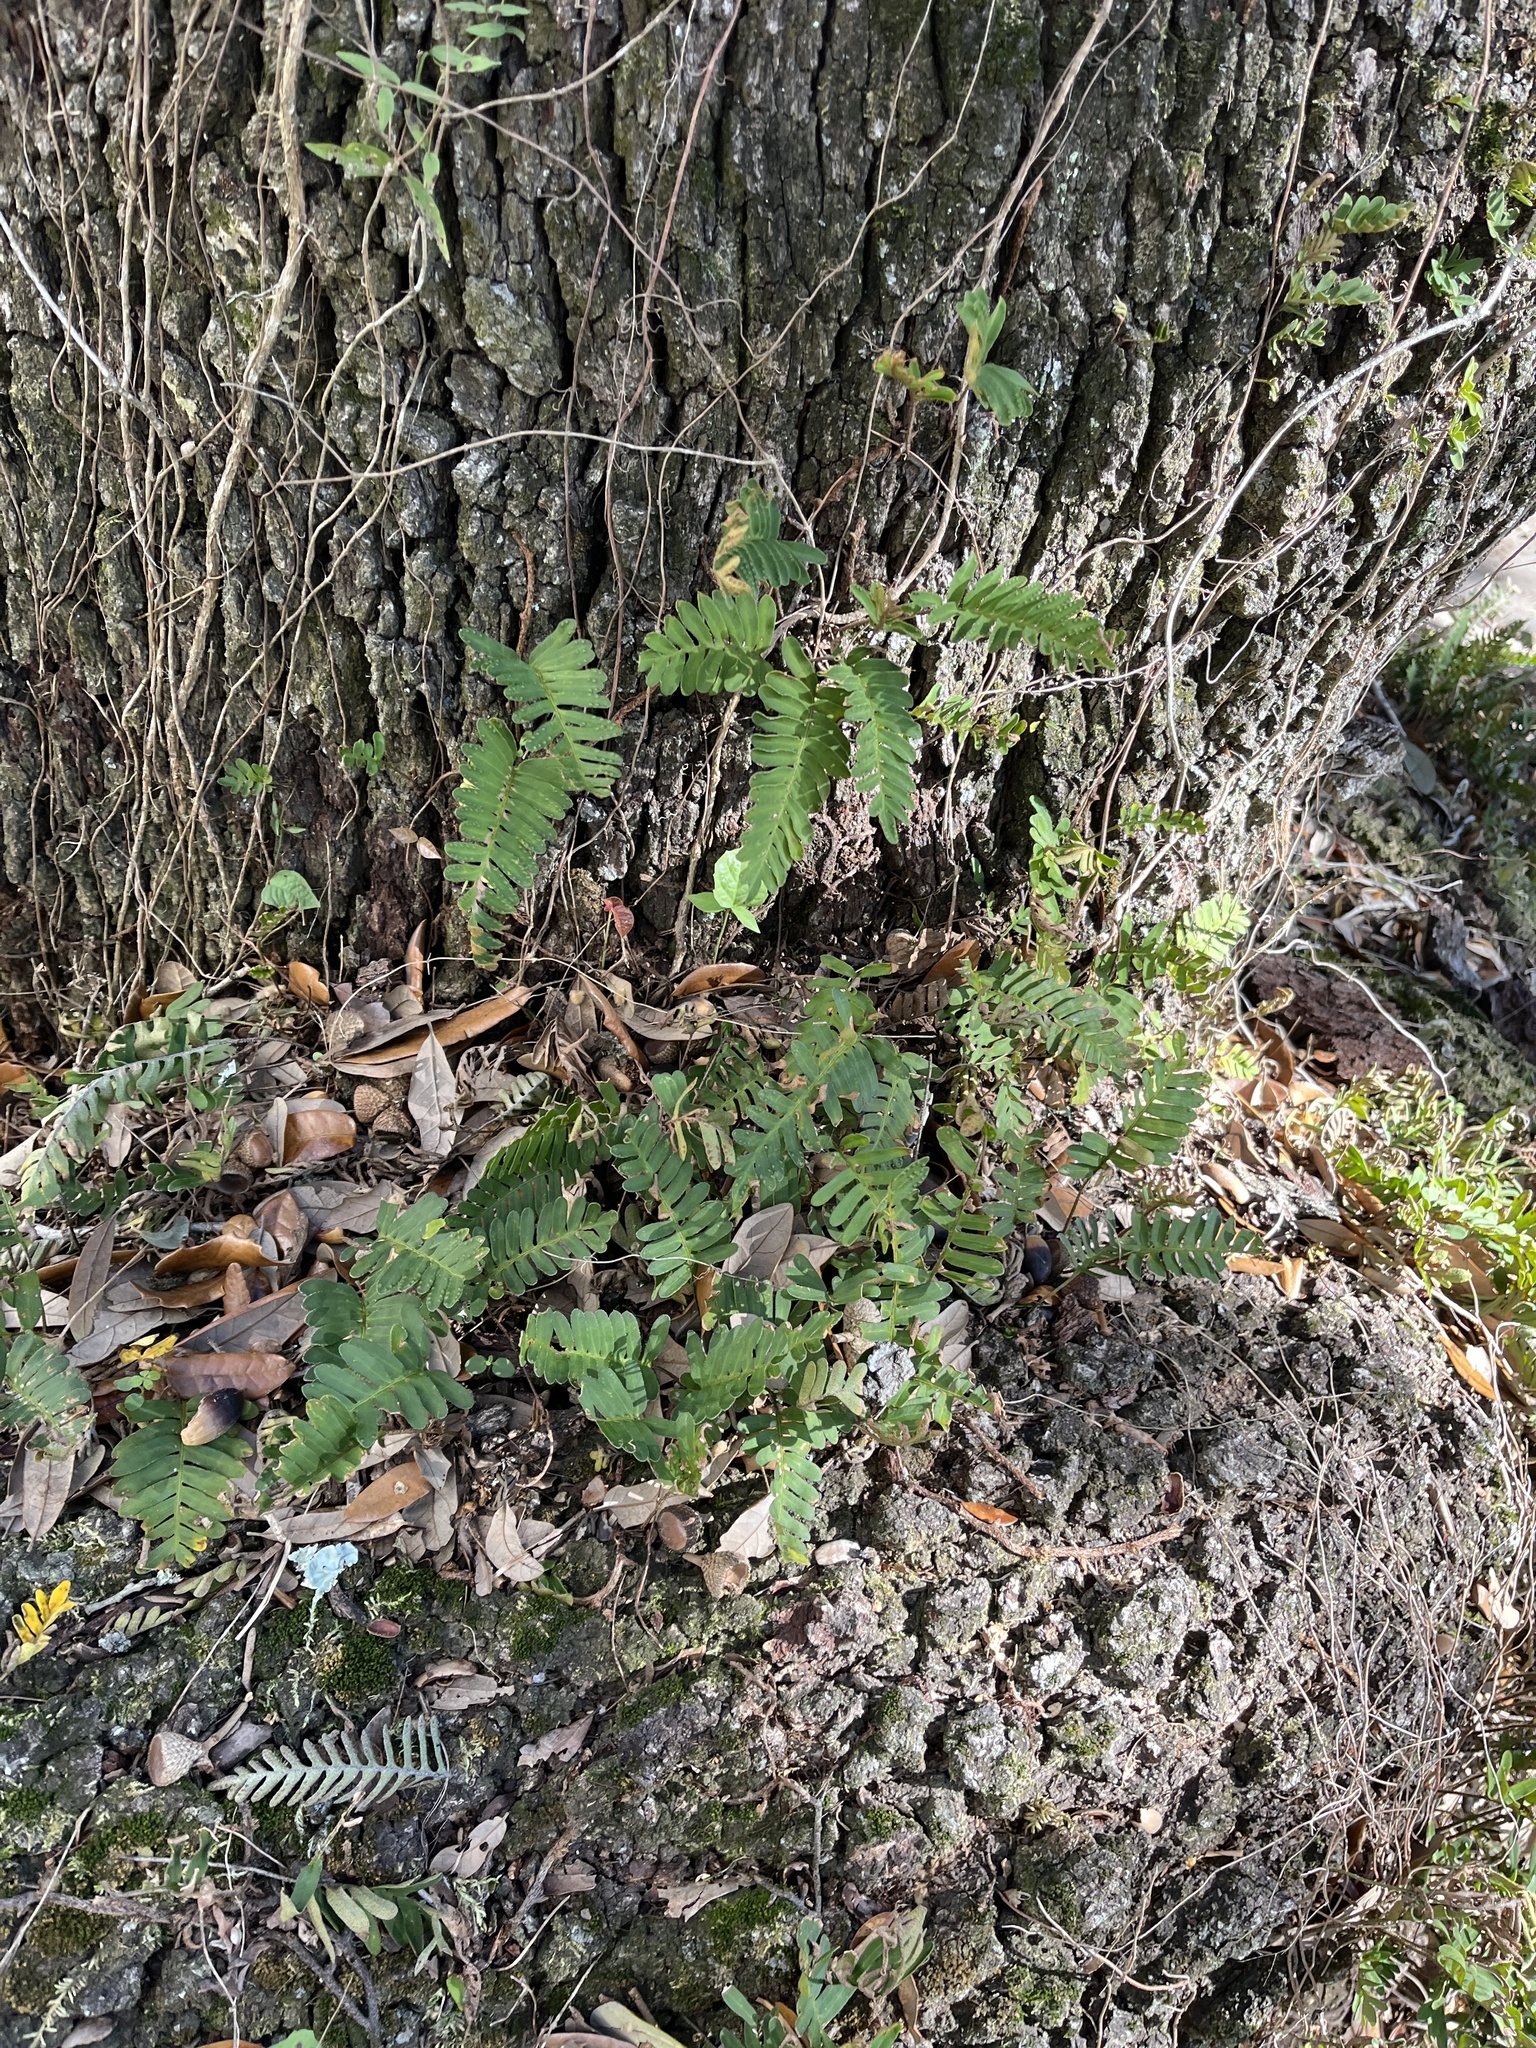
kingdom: Plantae
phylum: Tracheophyta
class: Polypodiopsida
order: Polypodiales
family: Polypodiaceae
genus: Pleopeltis
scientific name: Pleopeltis michauxiana
